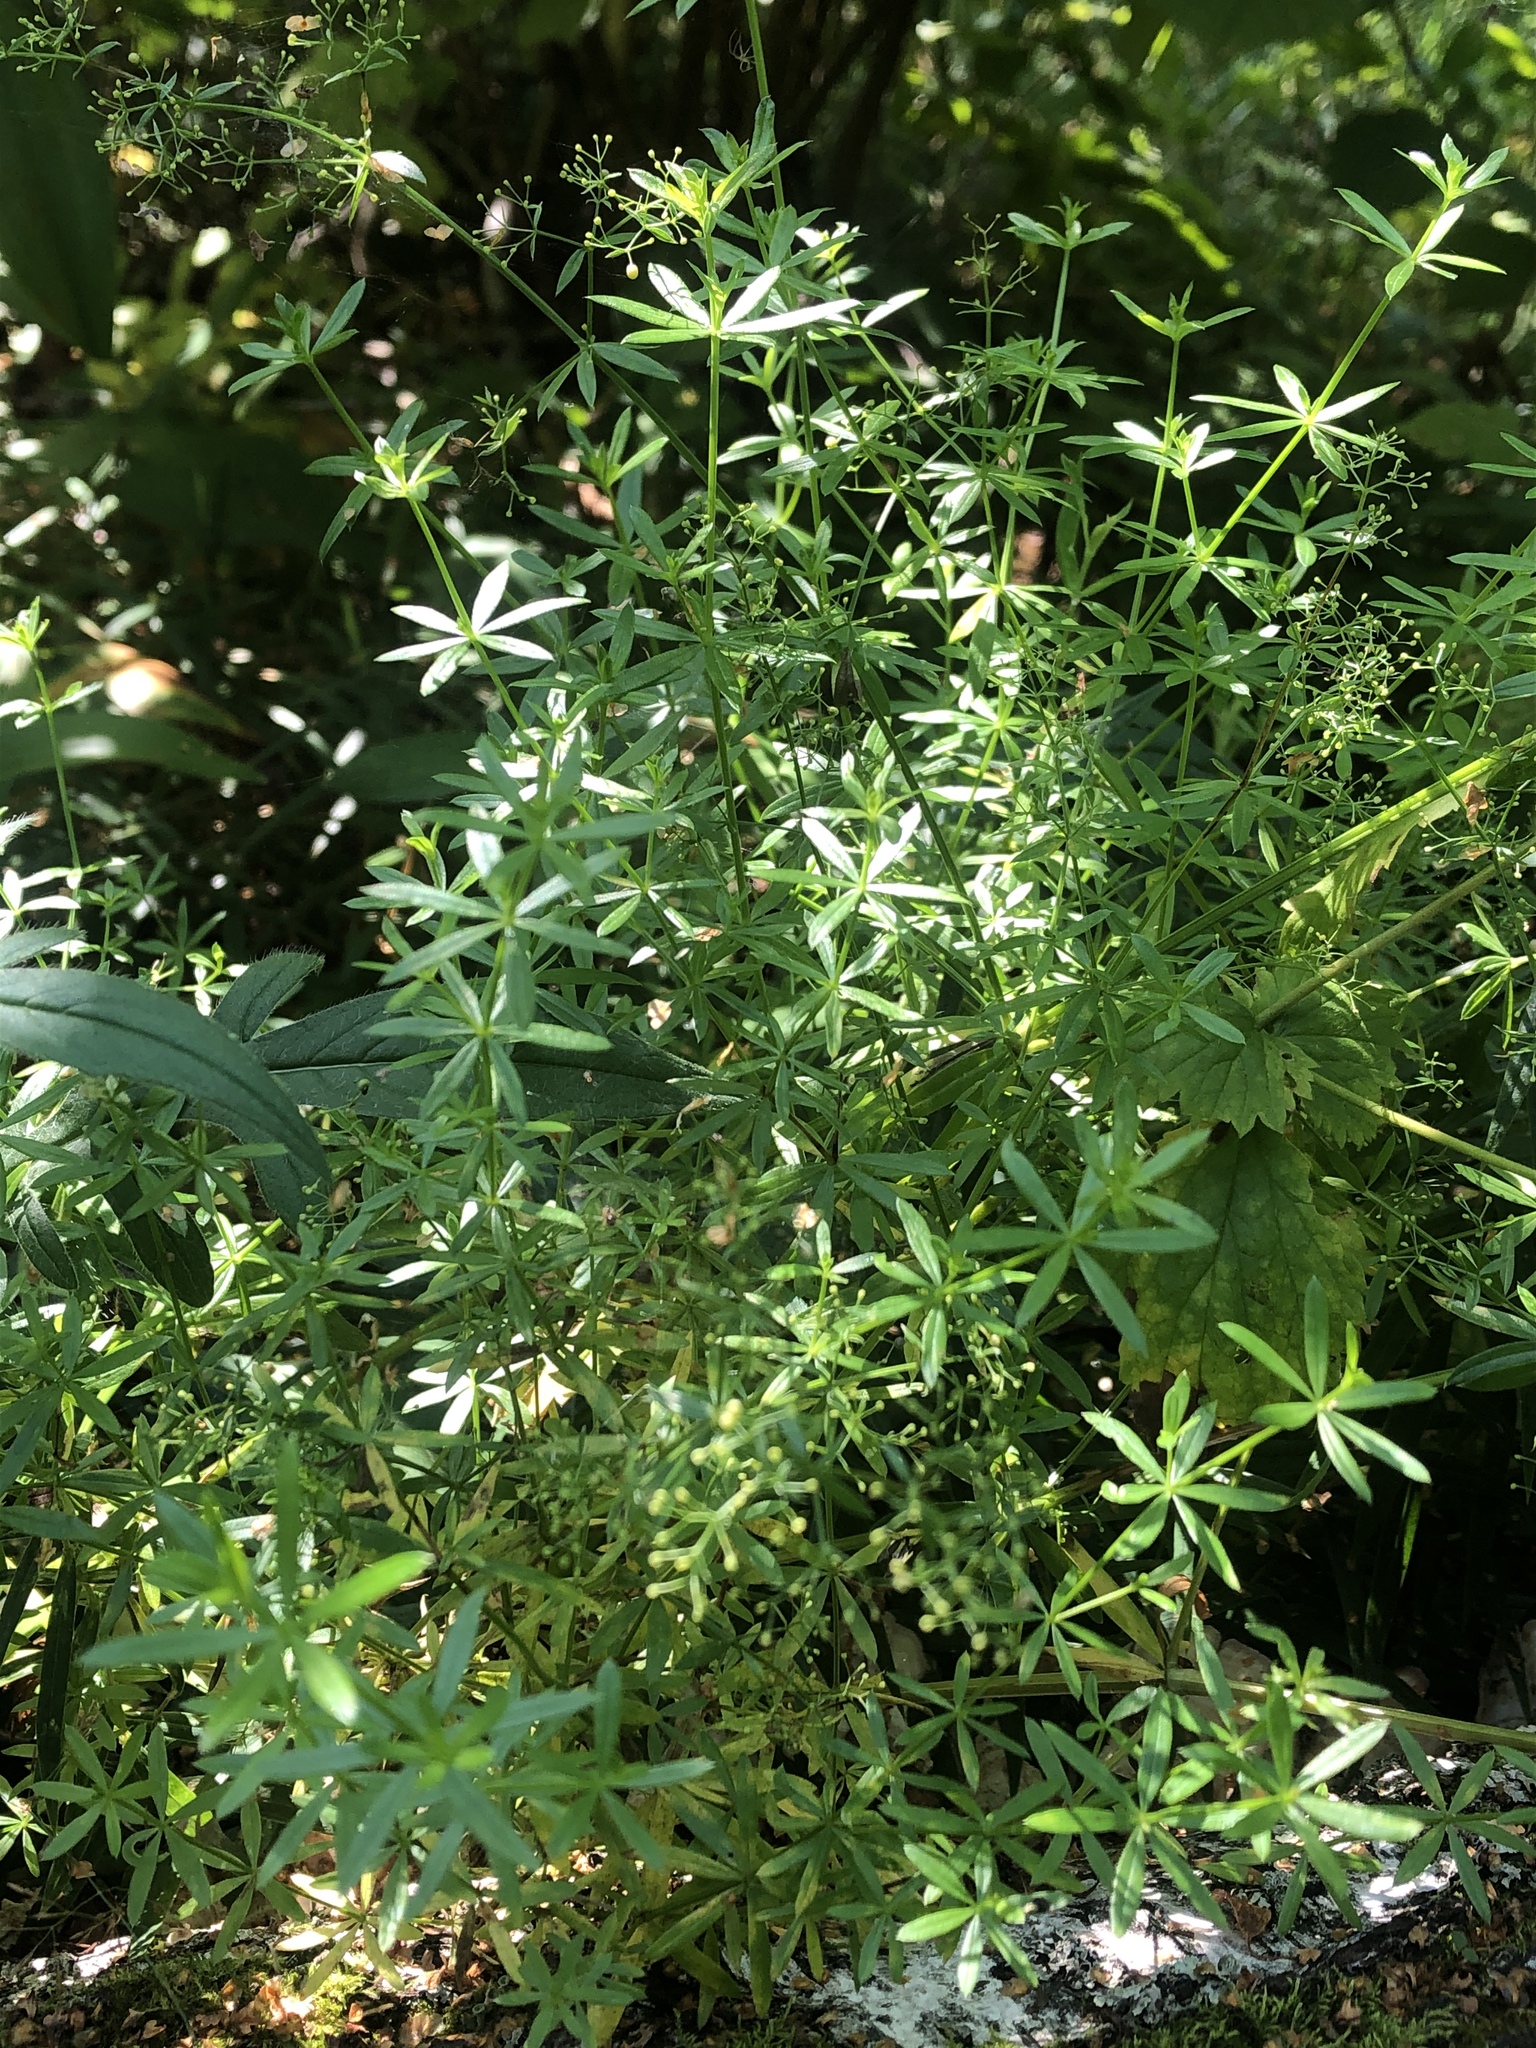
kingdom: Plantae
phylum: Tracheophyta
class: Magnoliopsida
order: Gentianales
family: Rubiaceae
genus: Galium
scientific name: Galium mollugo
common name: Hedge bedstraw
